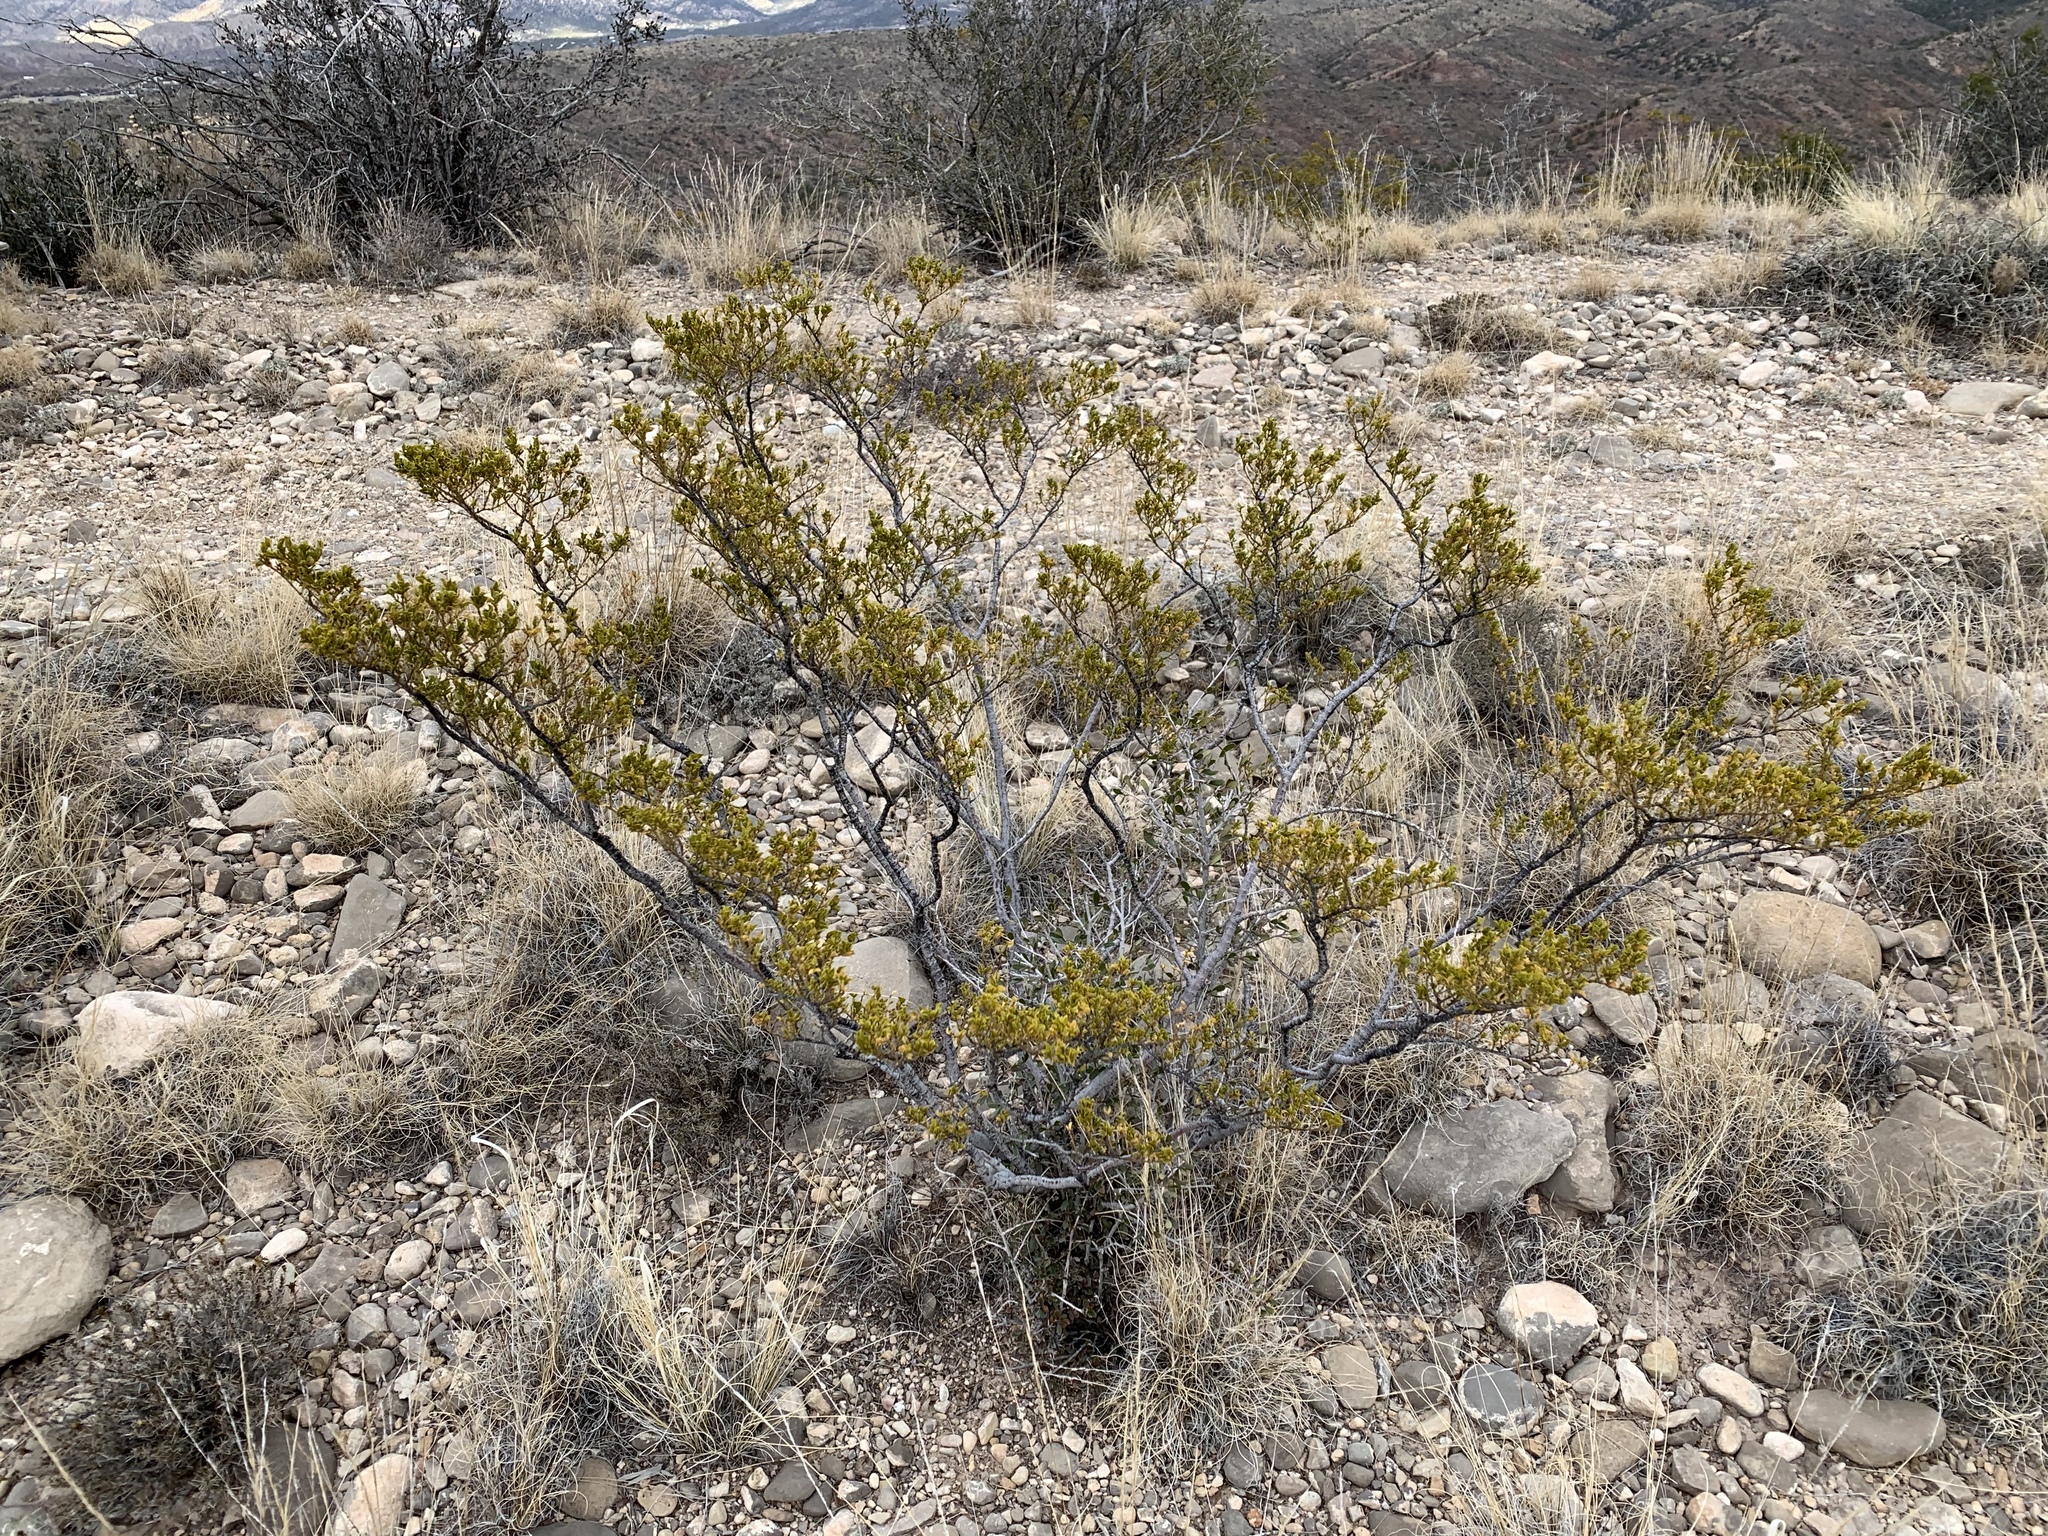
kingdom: Plantae
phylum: Tracheophyta
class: Magnoliopsida
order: Zygophyllales
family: Zygophyllaceae
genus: Larrea
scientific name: Larrea tridentata
